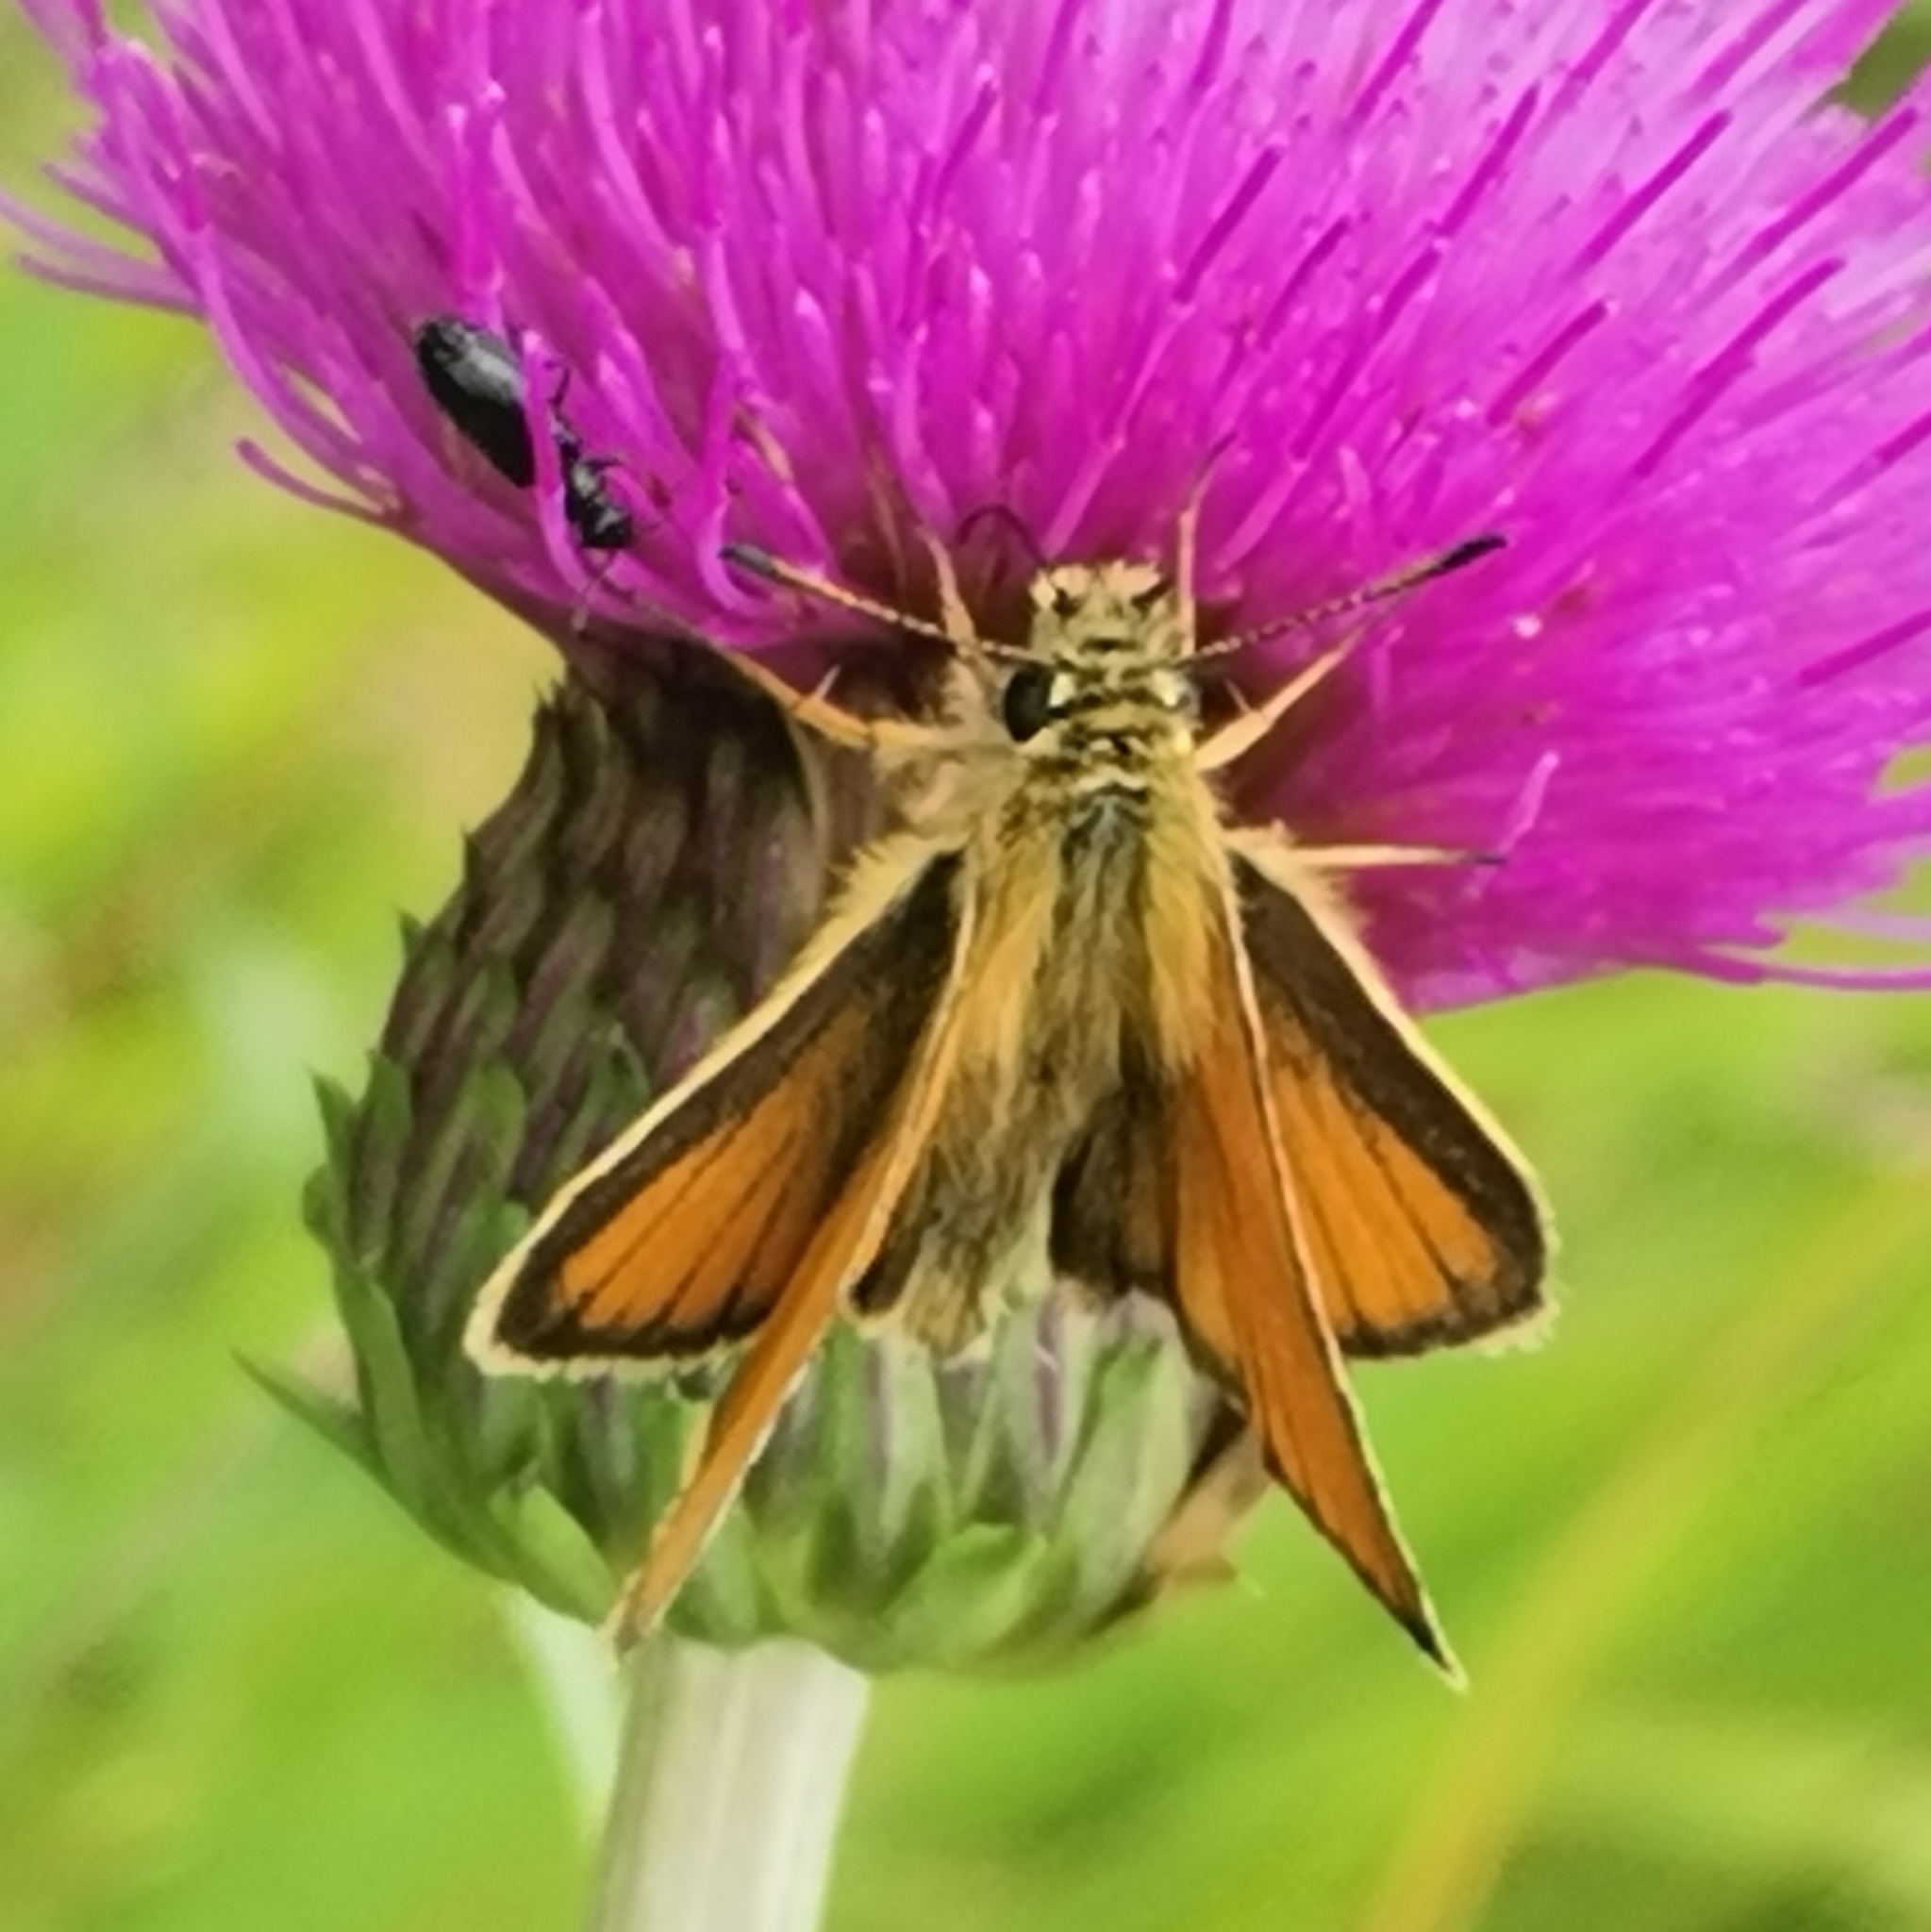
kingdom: Animalia
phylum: Arthropoda
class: Insecta
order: Lepidoptera
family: Hesperiidae
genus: Thymelicus
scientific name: Thymelicus lineola
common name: Essex skipper
